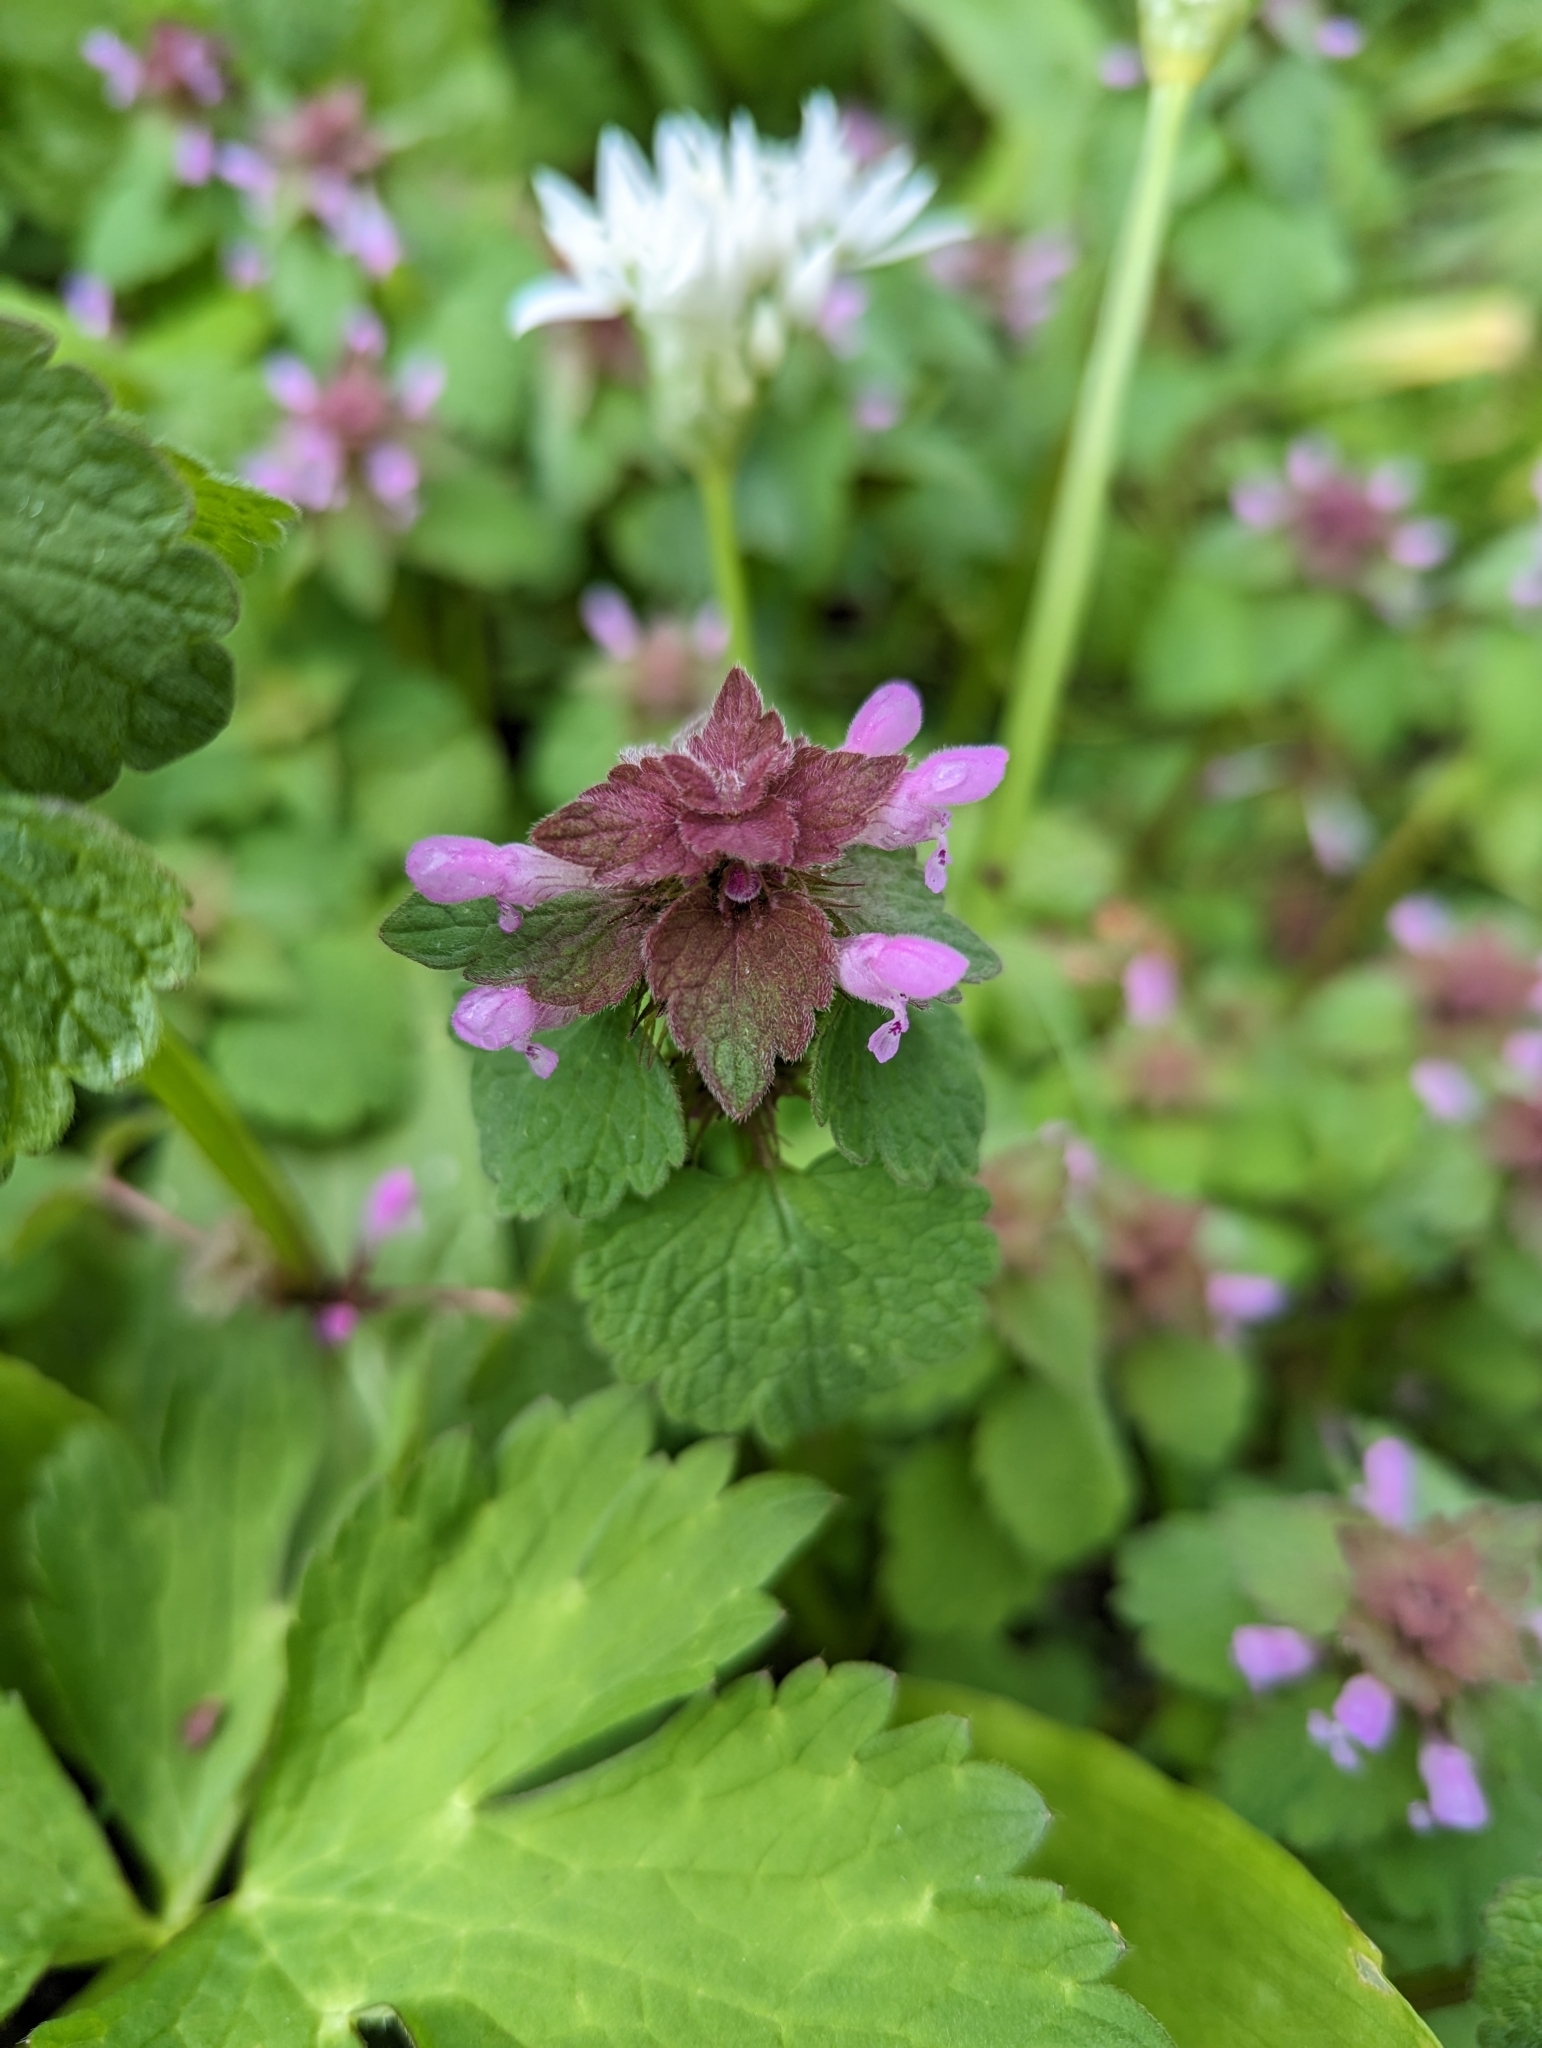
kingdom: Plantae
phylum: Tracheophyta
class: Magnoliopsida
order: Lamiales
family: Lamiaceae
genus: Lamium
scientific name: Lamium purpureum
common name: Red dead-nettle
